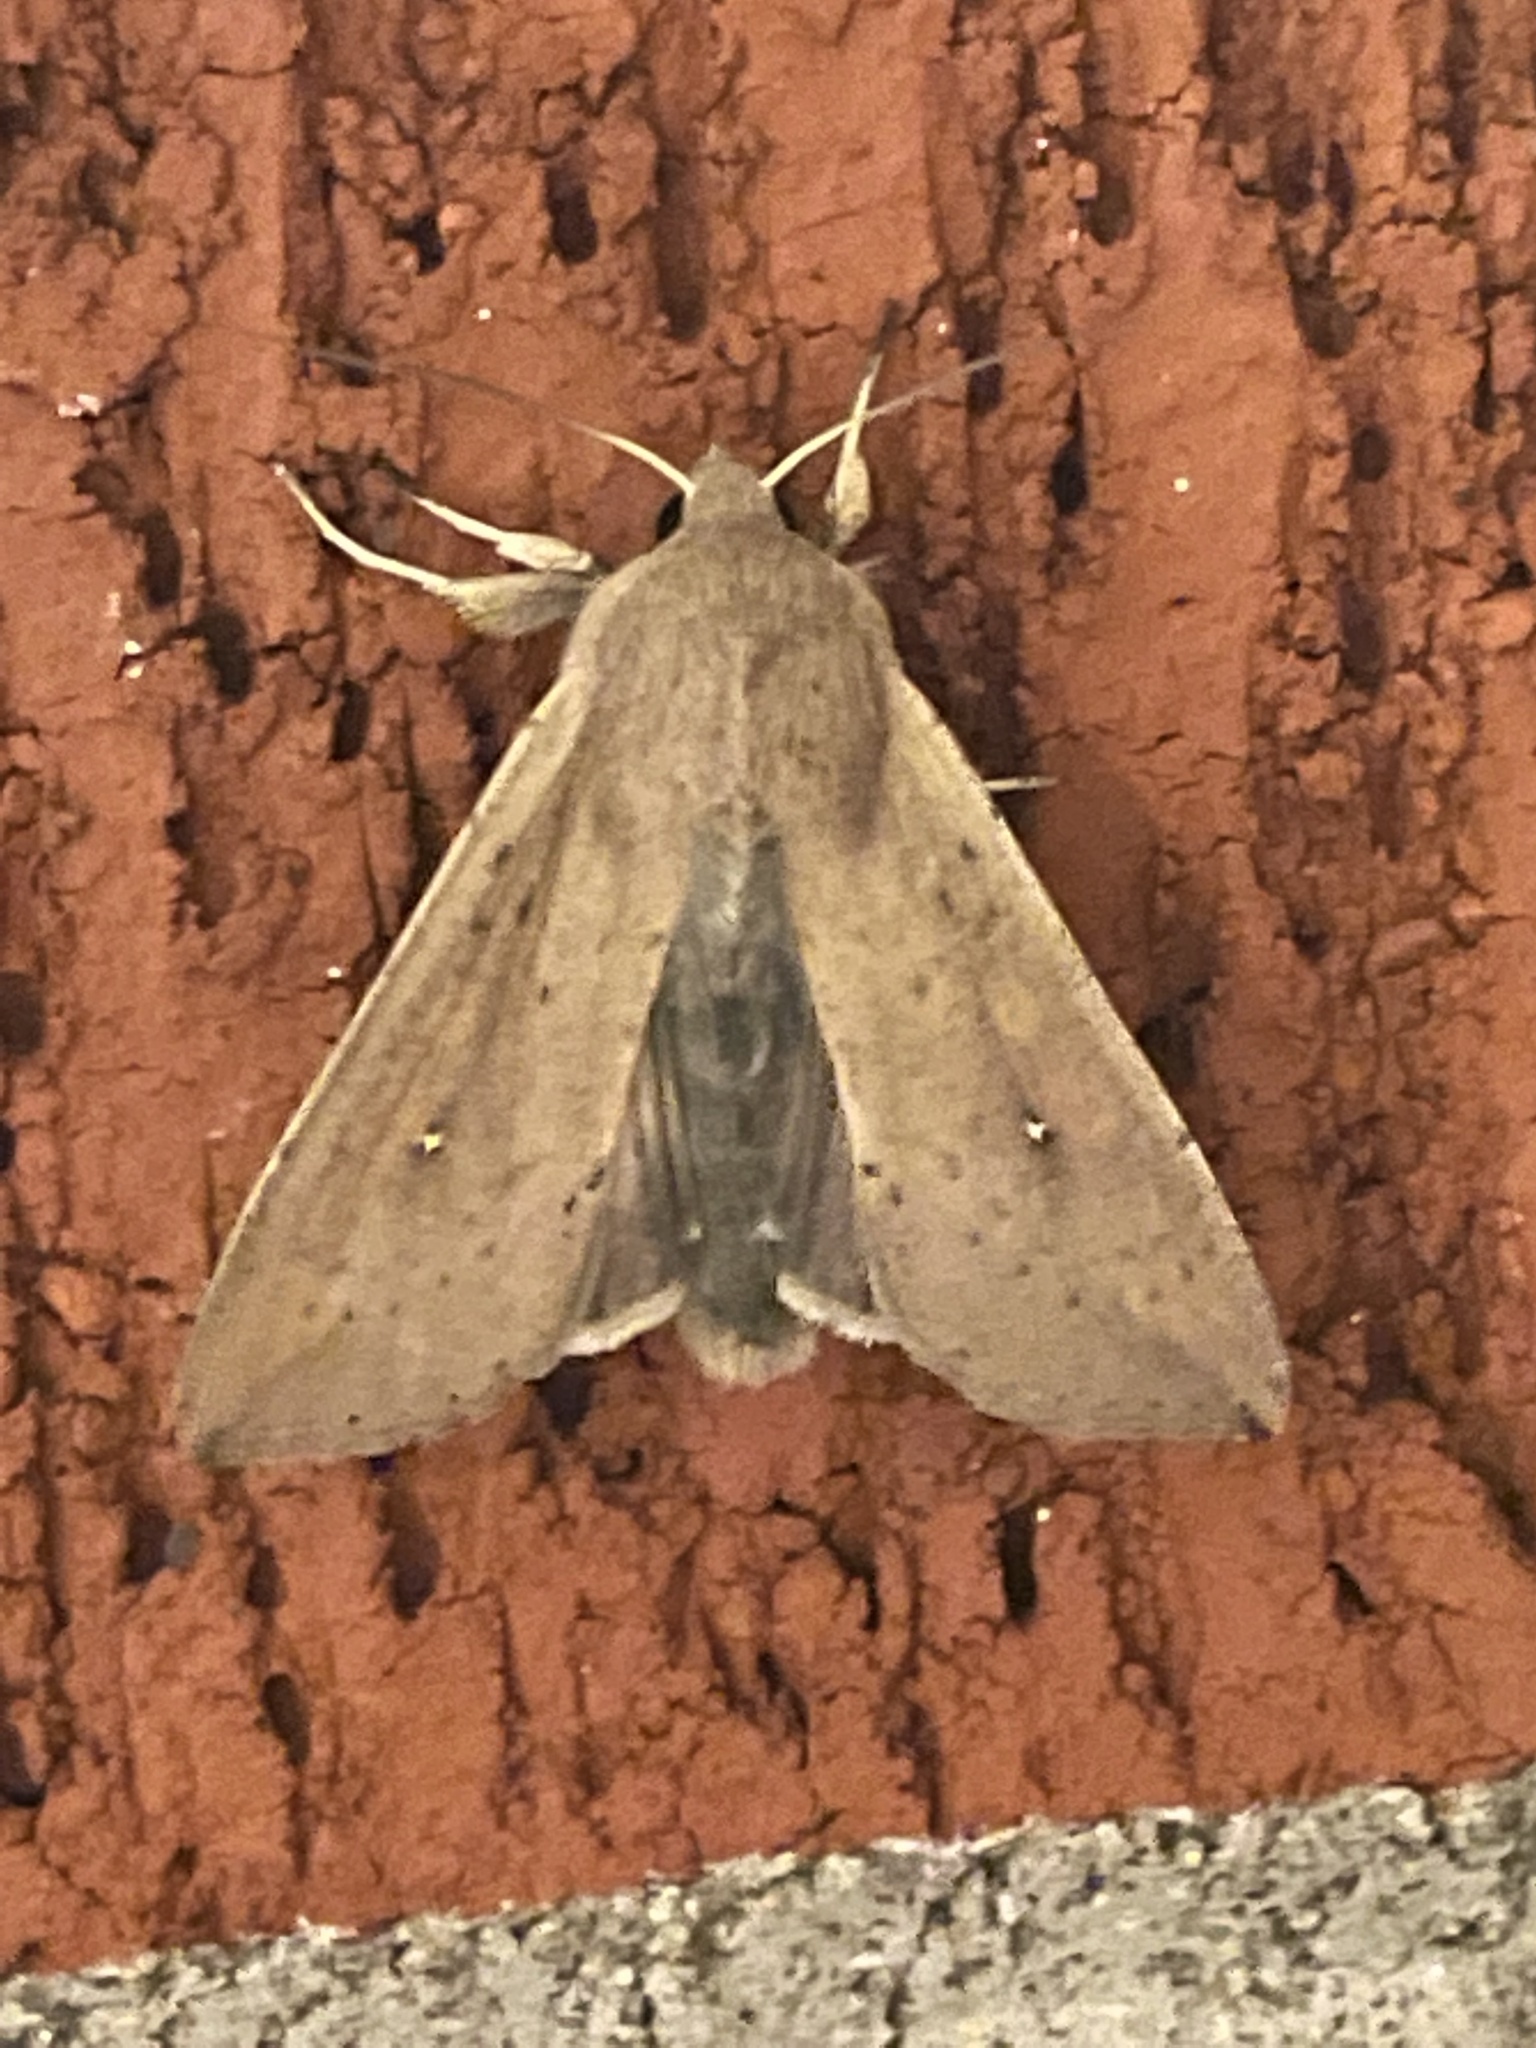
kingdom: Animalia
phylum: Arthropoda
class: Insecta
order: Lepidoptera
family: Noctuidae
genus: Mythimna
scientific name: Mythimna unipuncta
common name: White-speck
